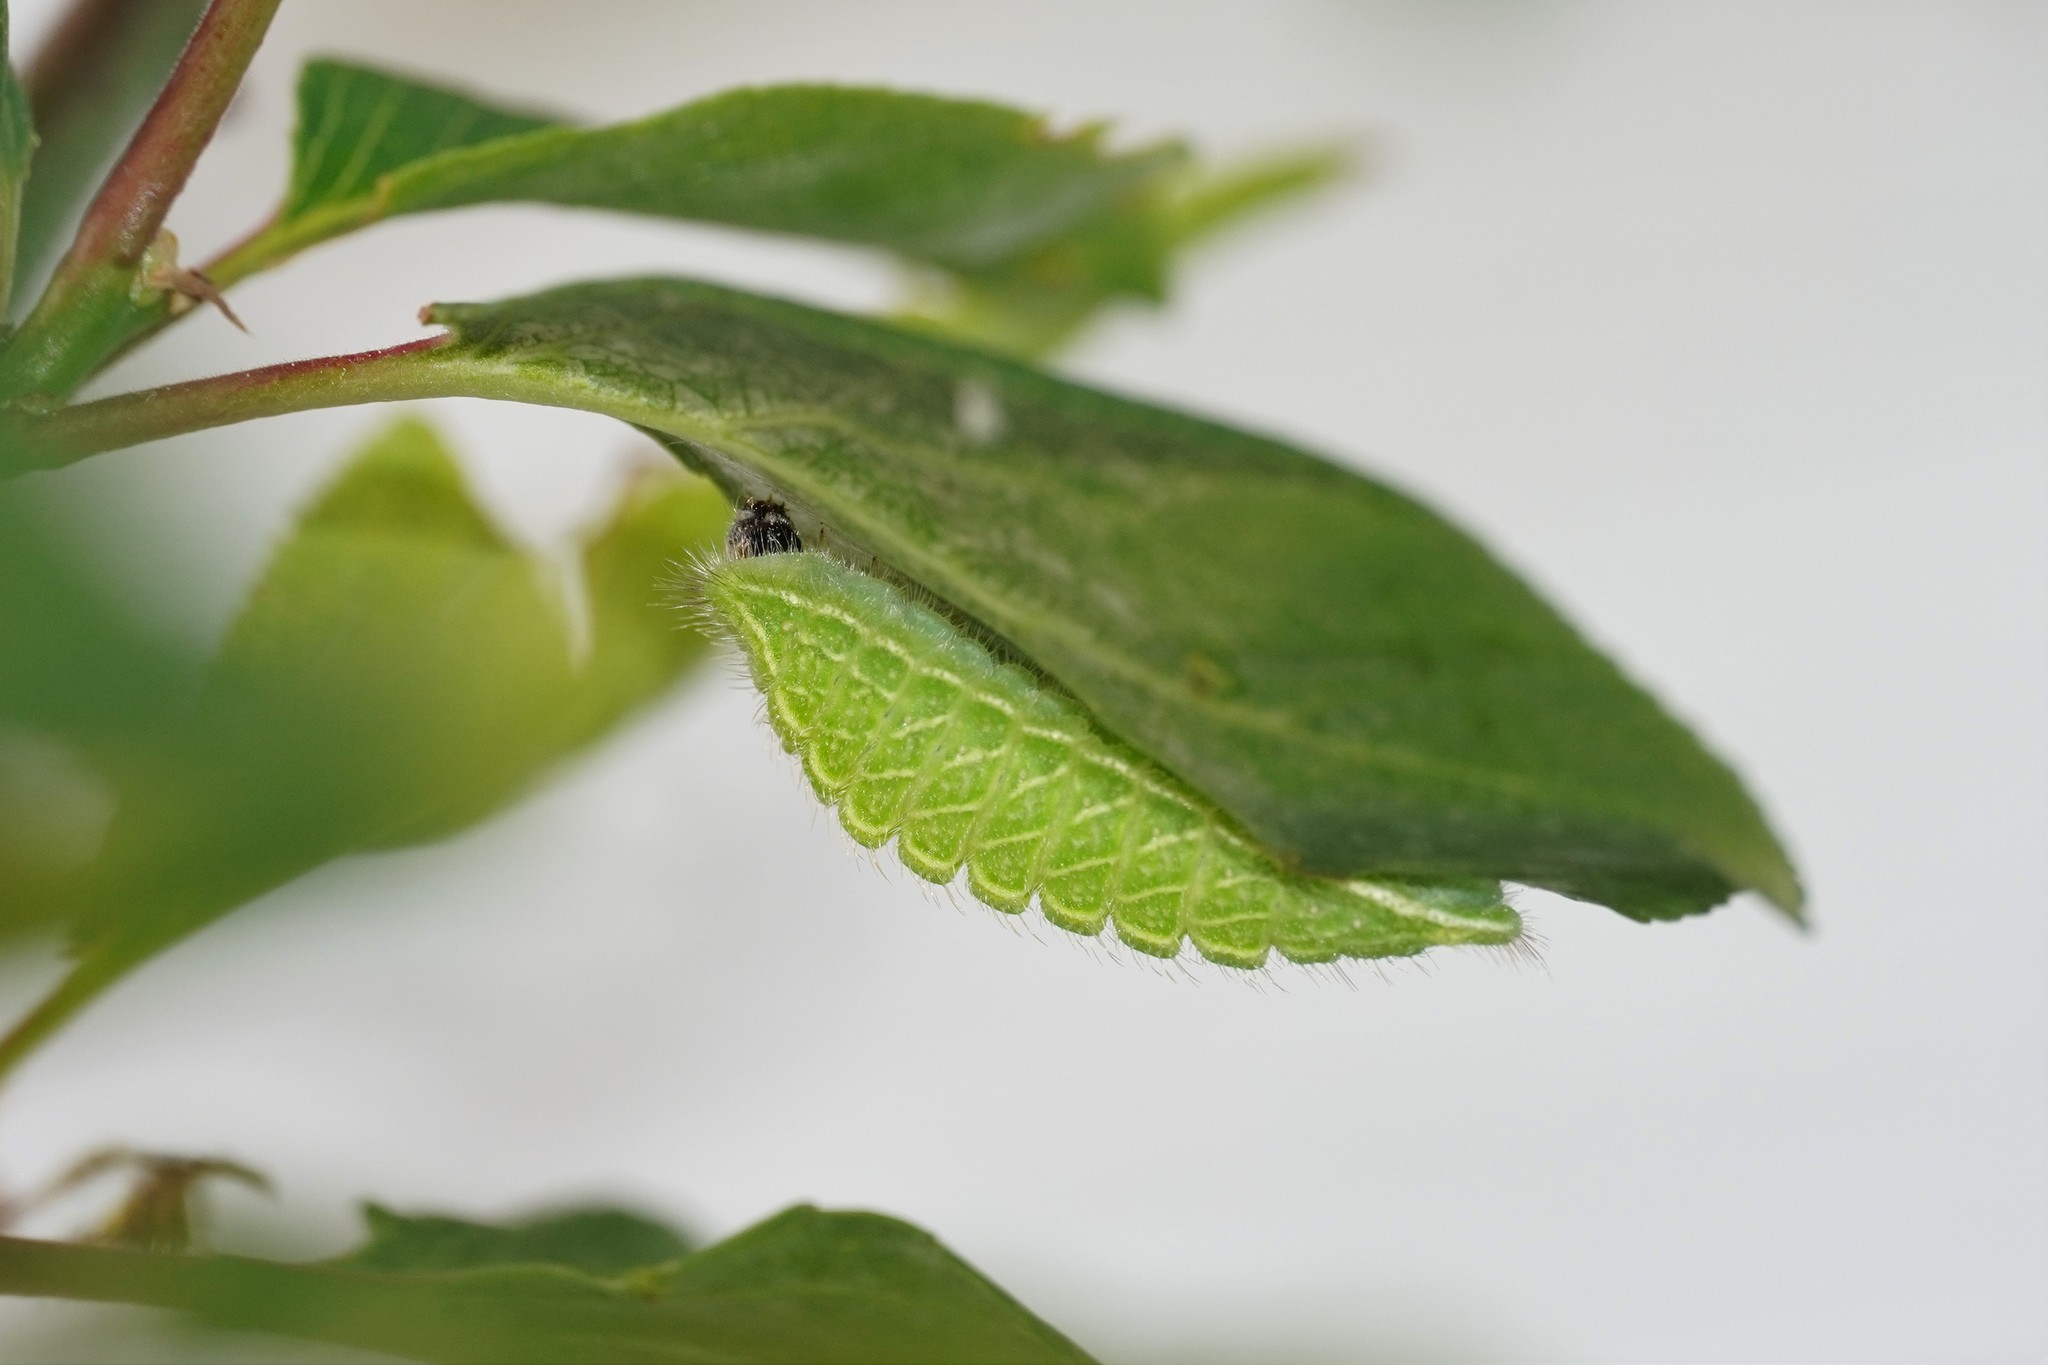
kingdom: Animalia
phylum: Arthropoda
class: Insecta
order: Lepidoptera
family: Lycaenidae
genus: Thecla
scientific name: Thecla betulae
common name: Brown hairstreak
